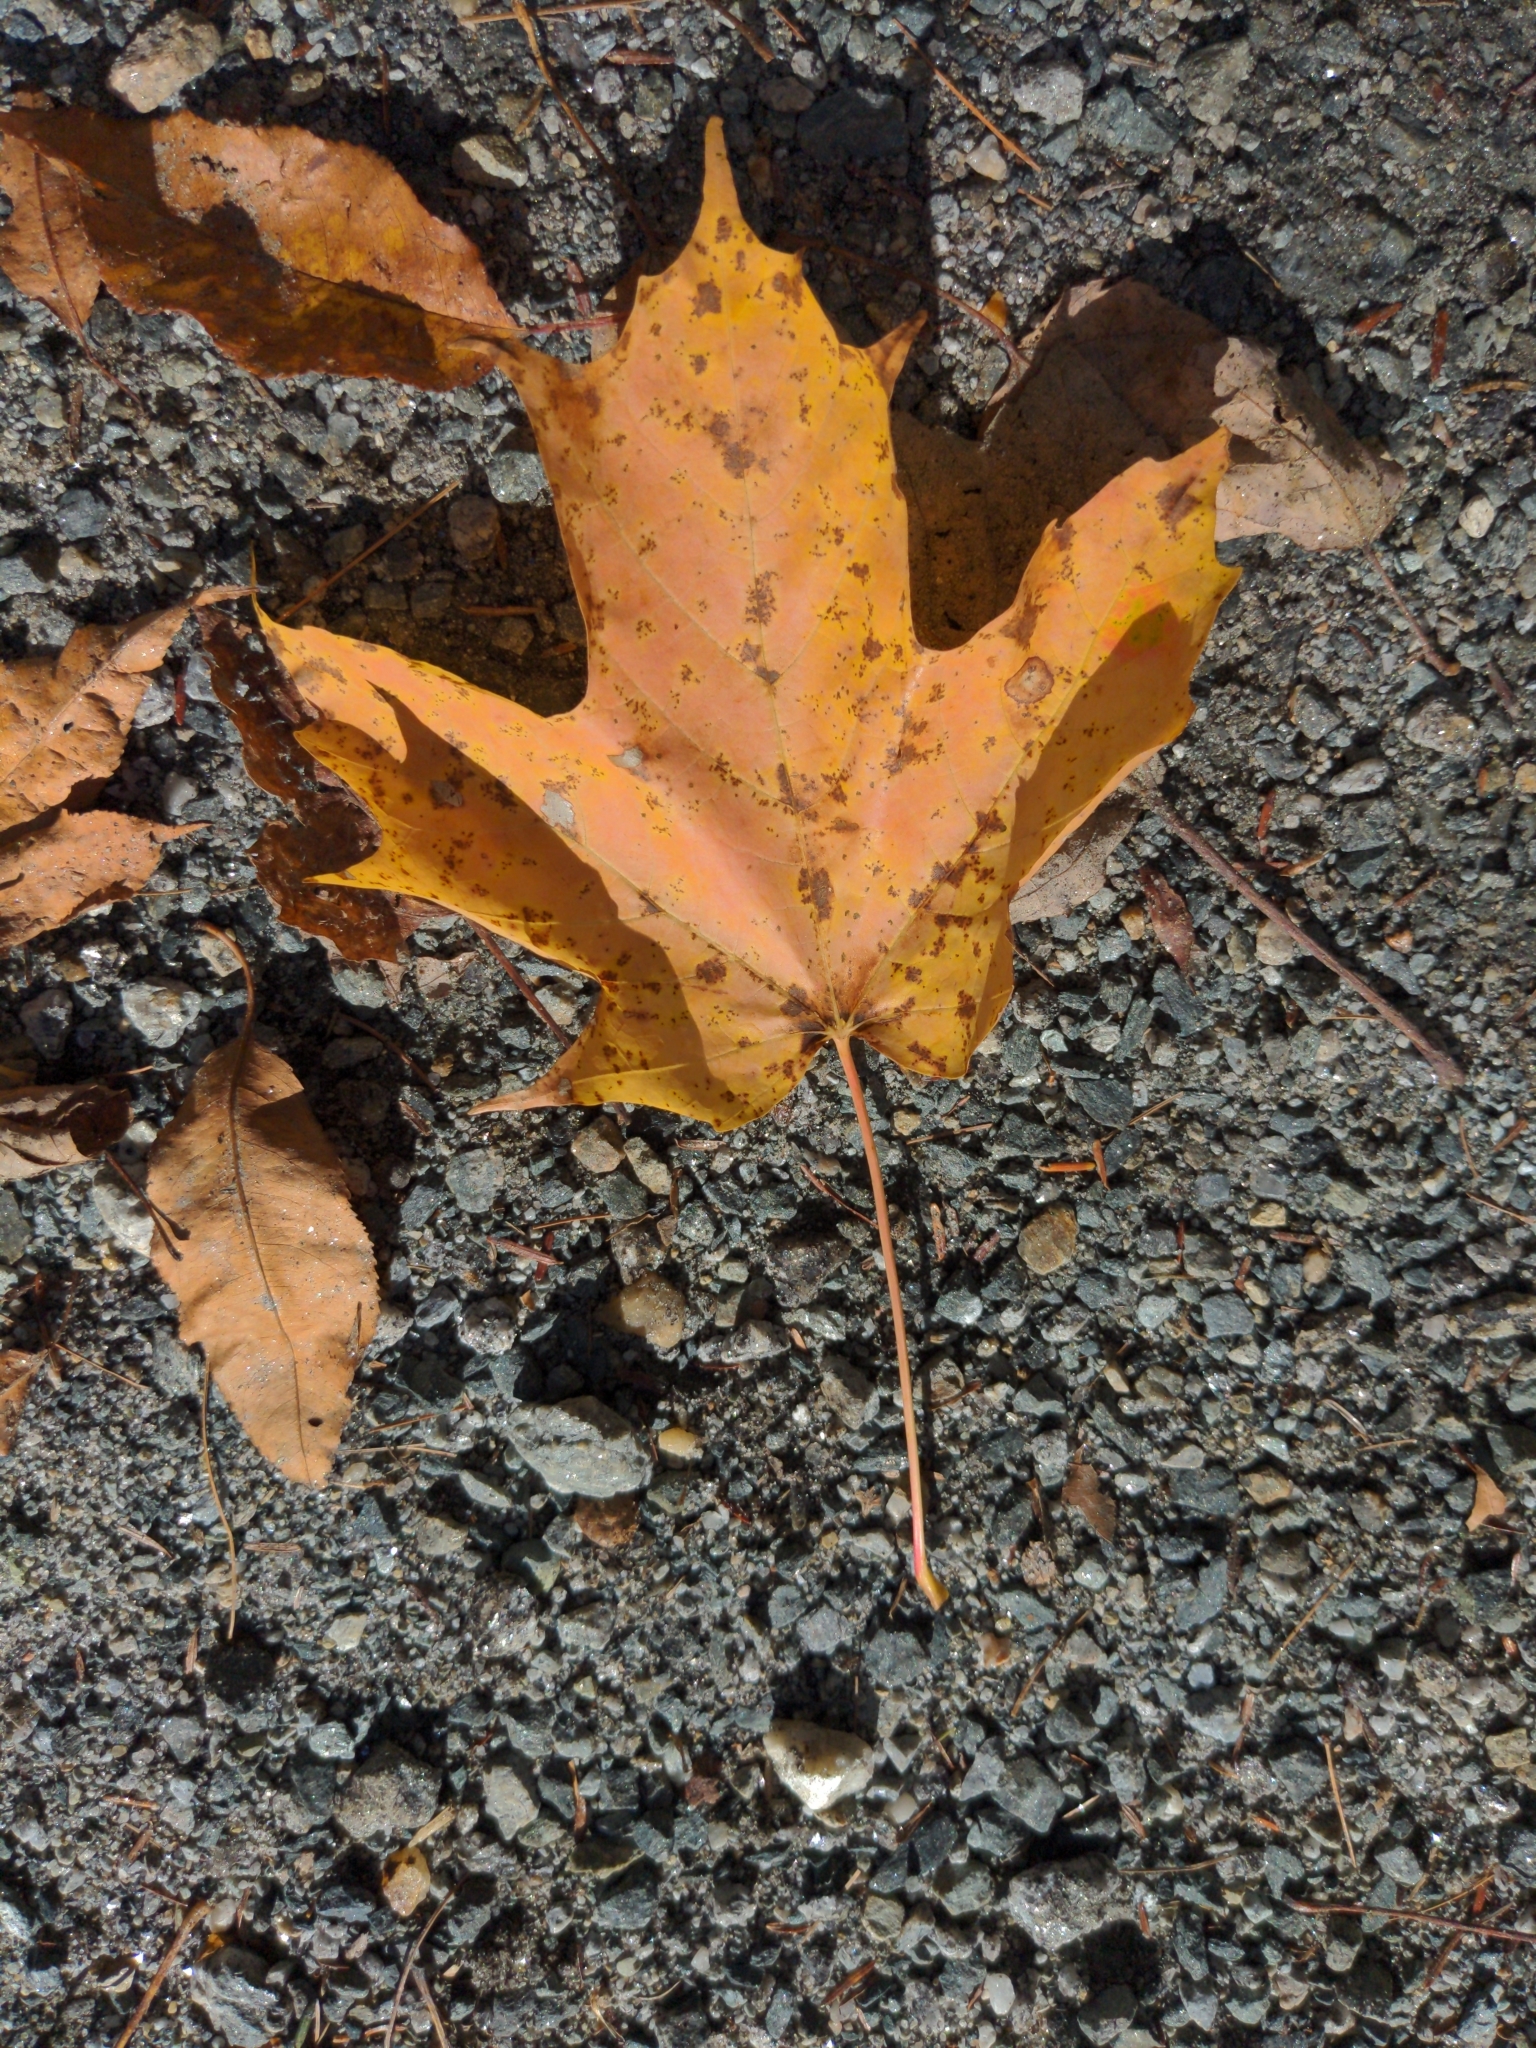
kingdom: Plantae
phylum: Tracheophyta
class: Magnoliopsida
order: Sapindales
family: Sapindaceae
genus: Acer
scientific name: Acer saccharum
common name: Sugar maple
